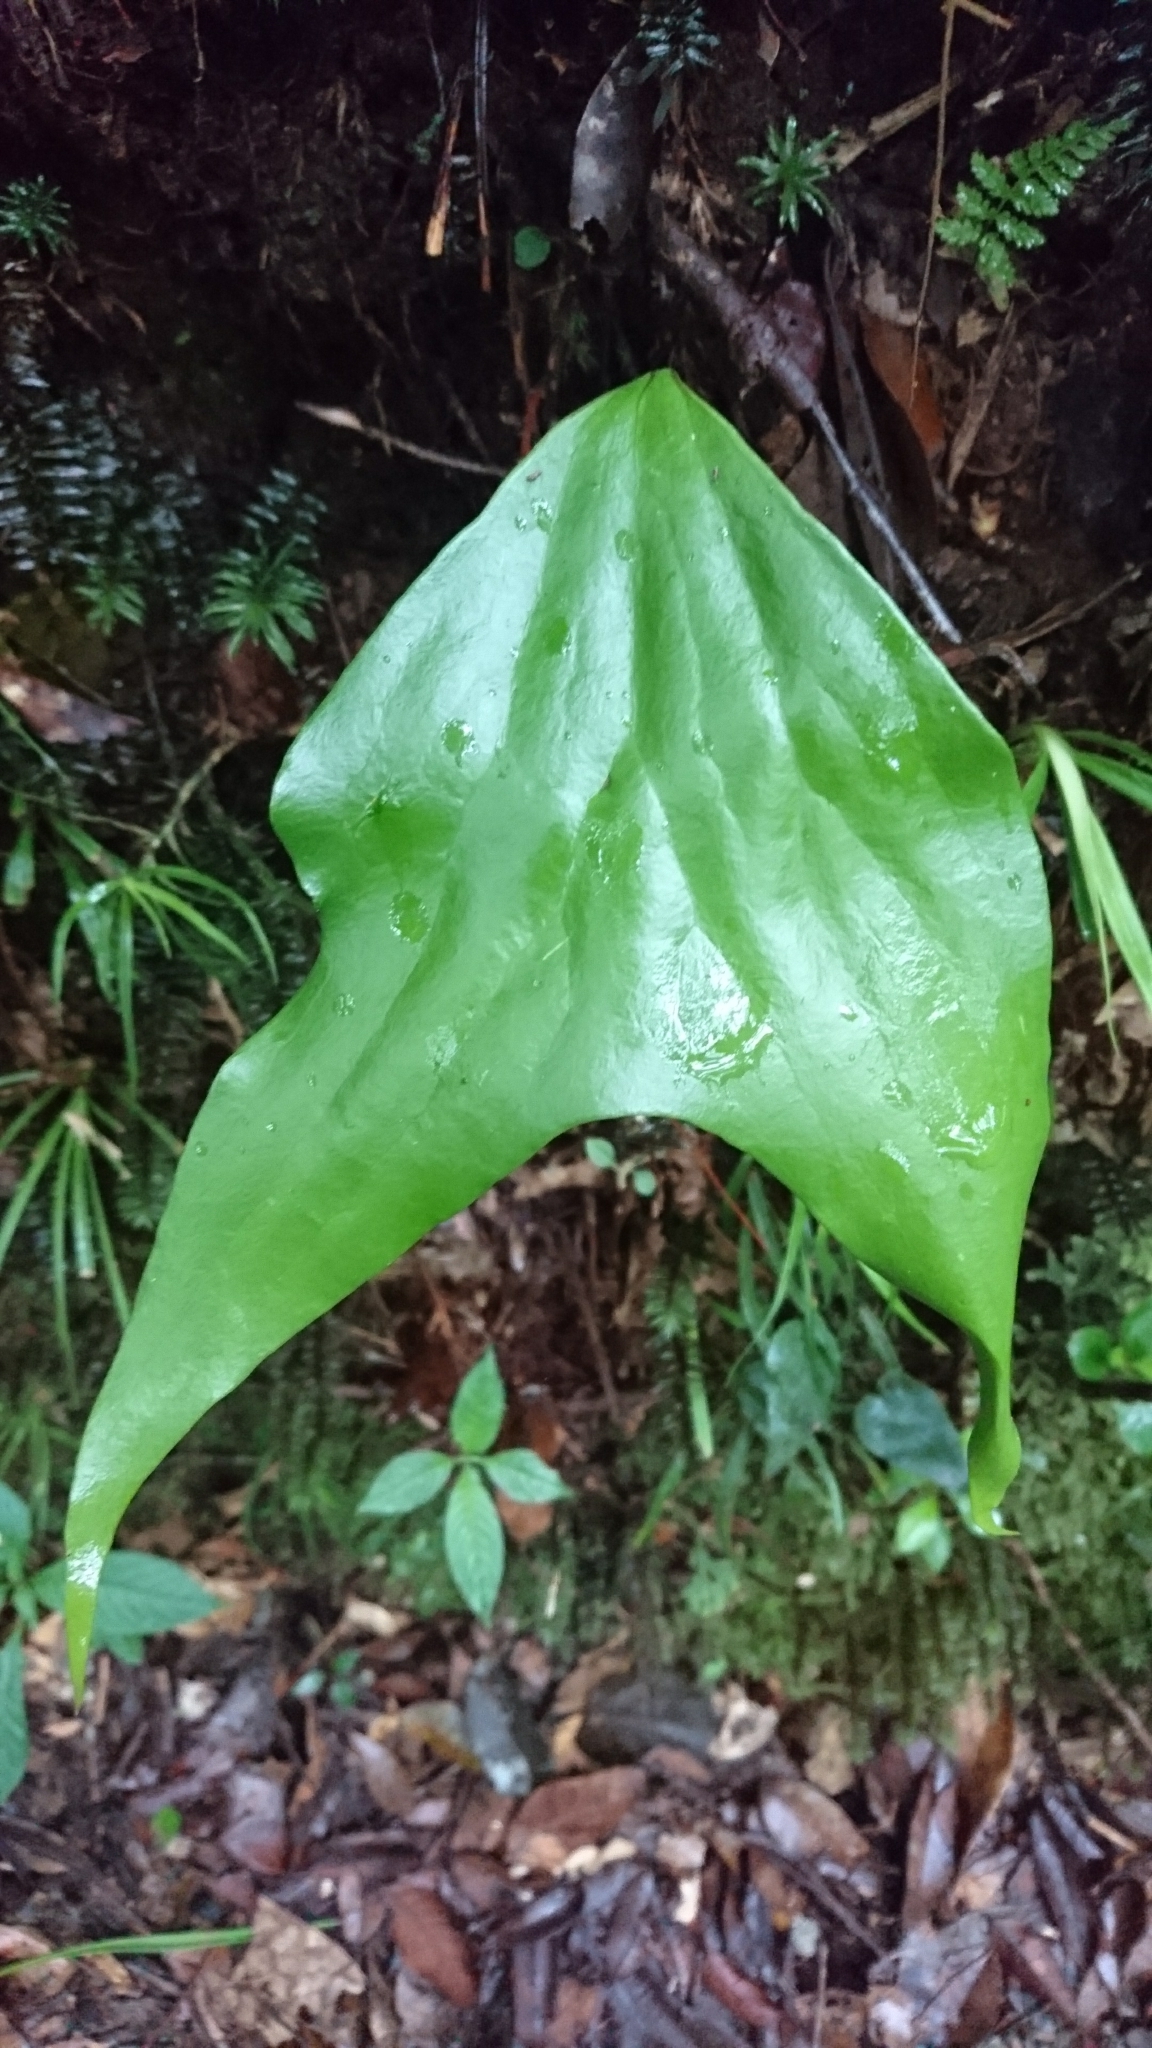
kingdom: Plantae
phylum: Tracheophyta
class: Polypodiopsida
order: Gleicheniales
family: Dipteridaceae
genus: Cheiropleuria
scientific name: Cheiropleuria bicuspis
